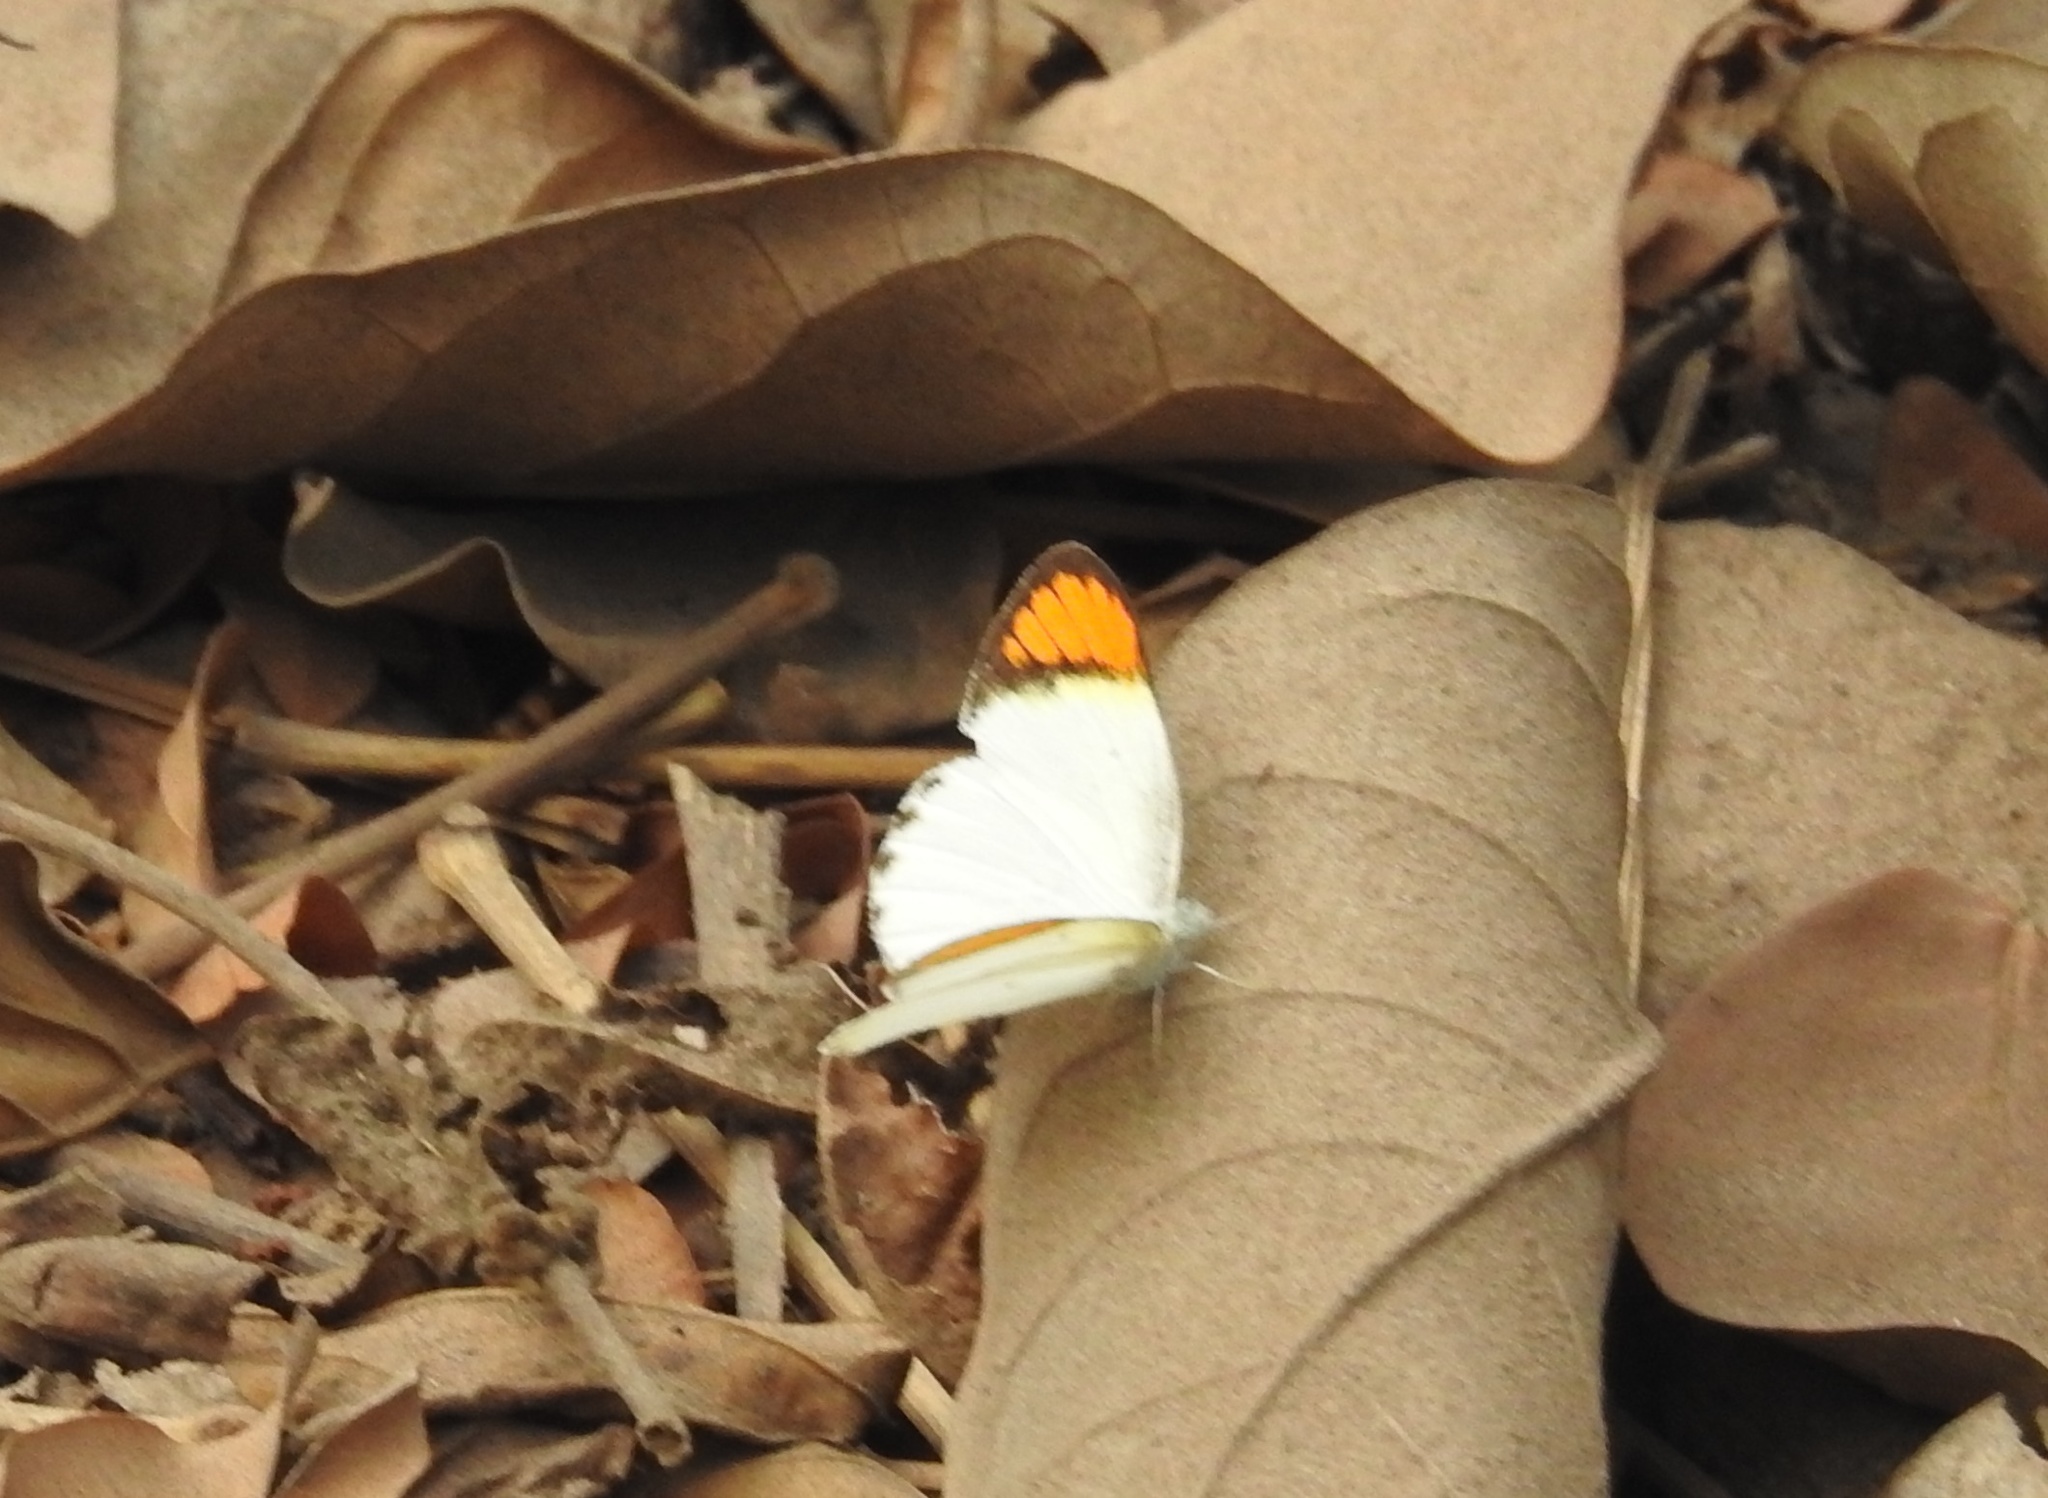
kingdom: Animalia
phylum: Arthropoda
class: Insecta
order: Lepidoptera
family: Pieridae
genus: Colotis
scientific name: Colotis etrida
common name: Little orange tip
